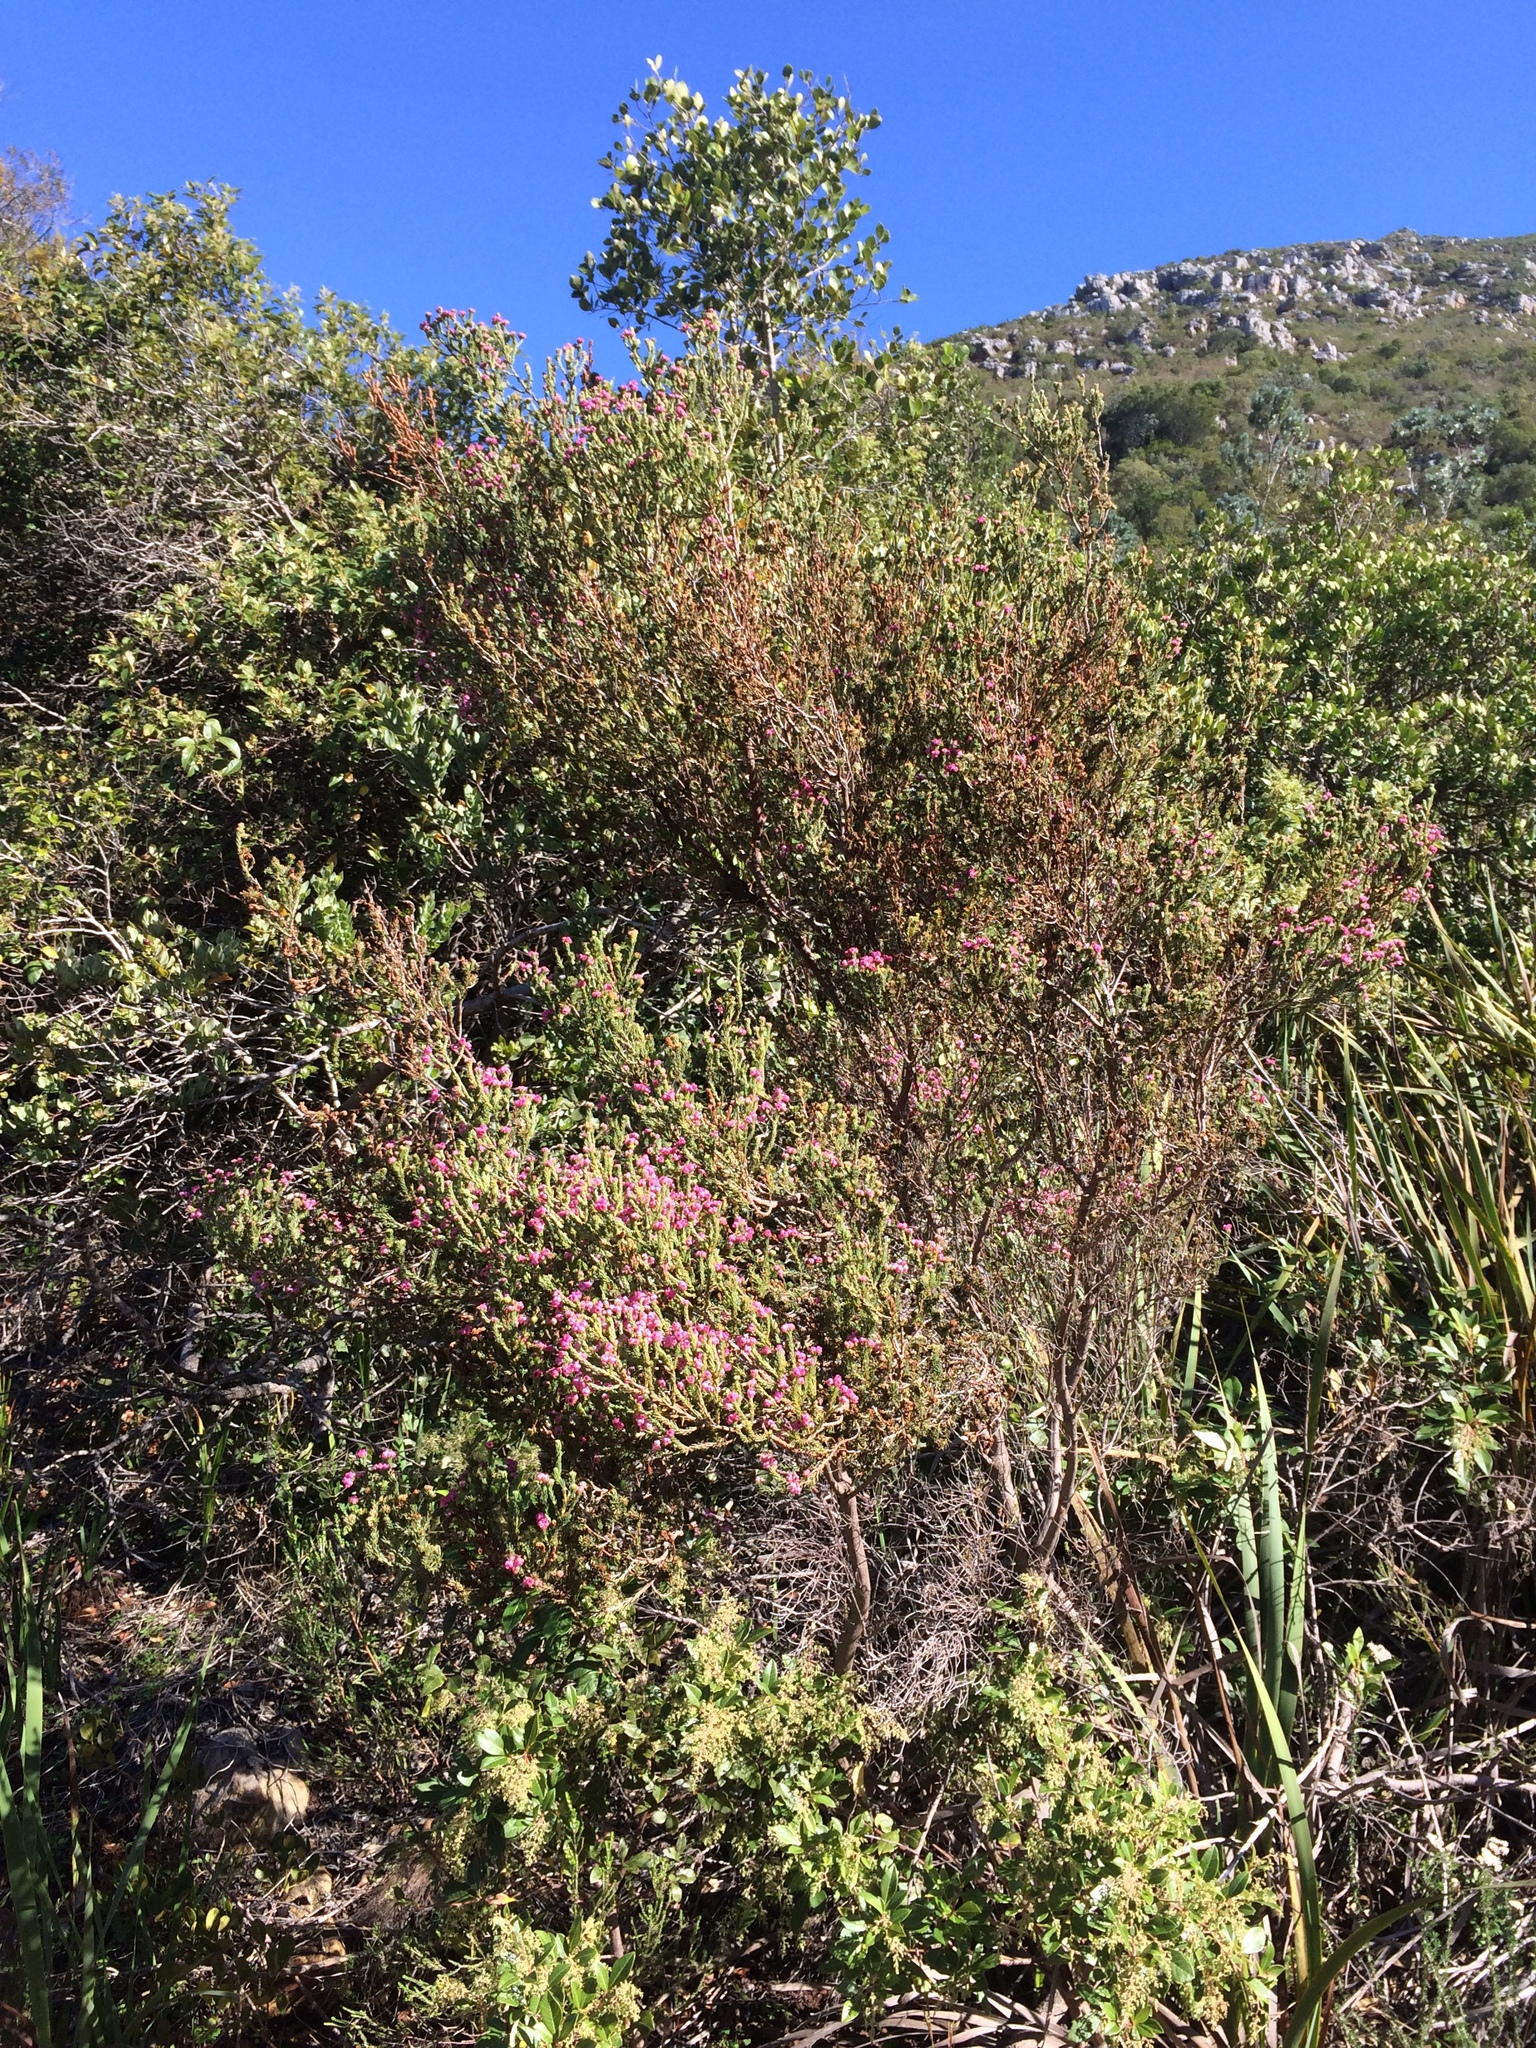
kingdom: Plantae
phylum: Tracheophyta
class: Magnoliopsida
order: Ericales
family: Ericaceae
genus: Erica
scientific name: Erica baccans
